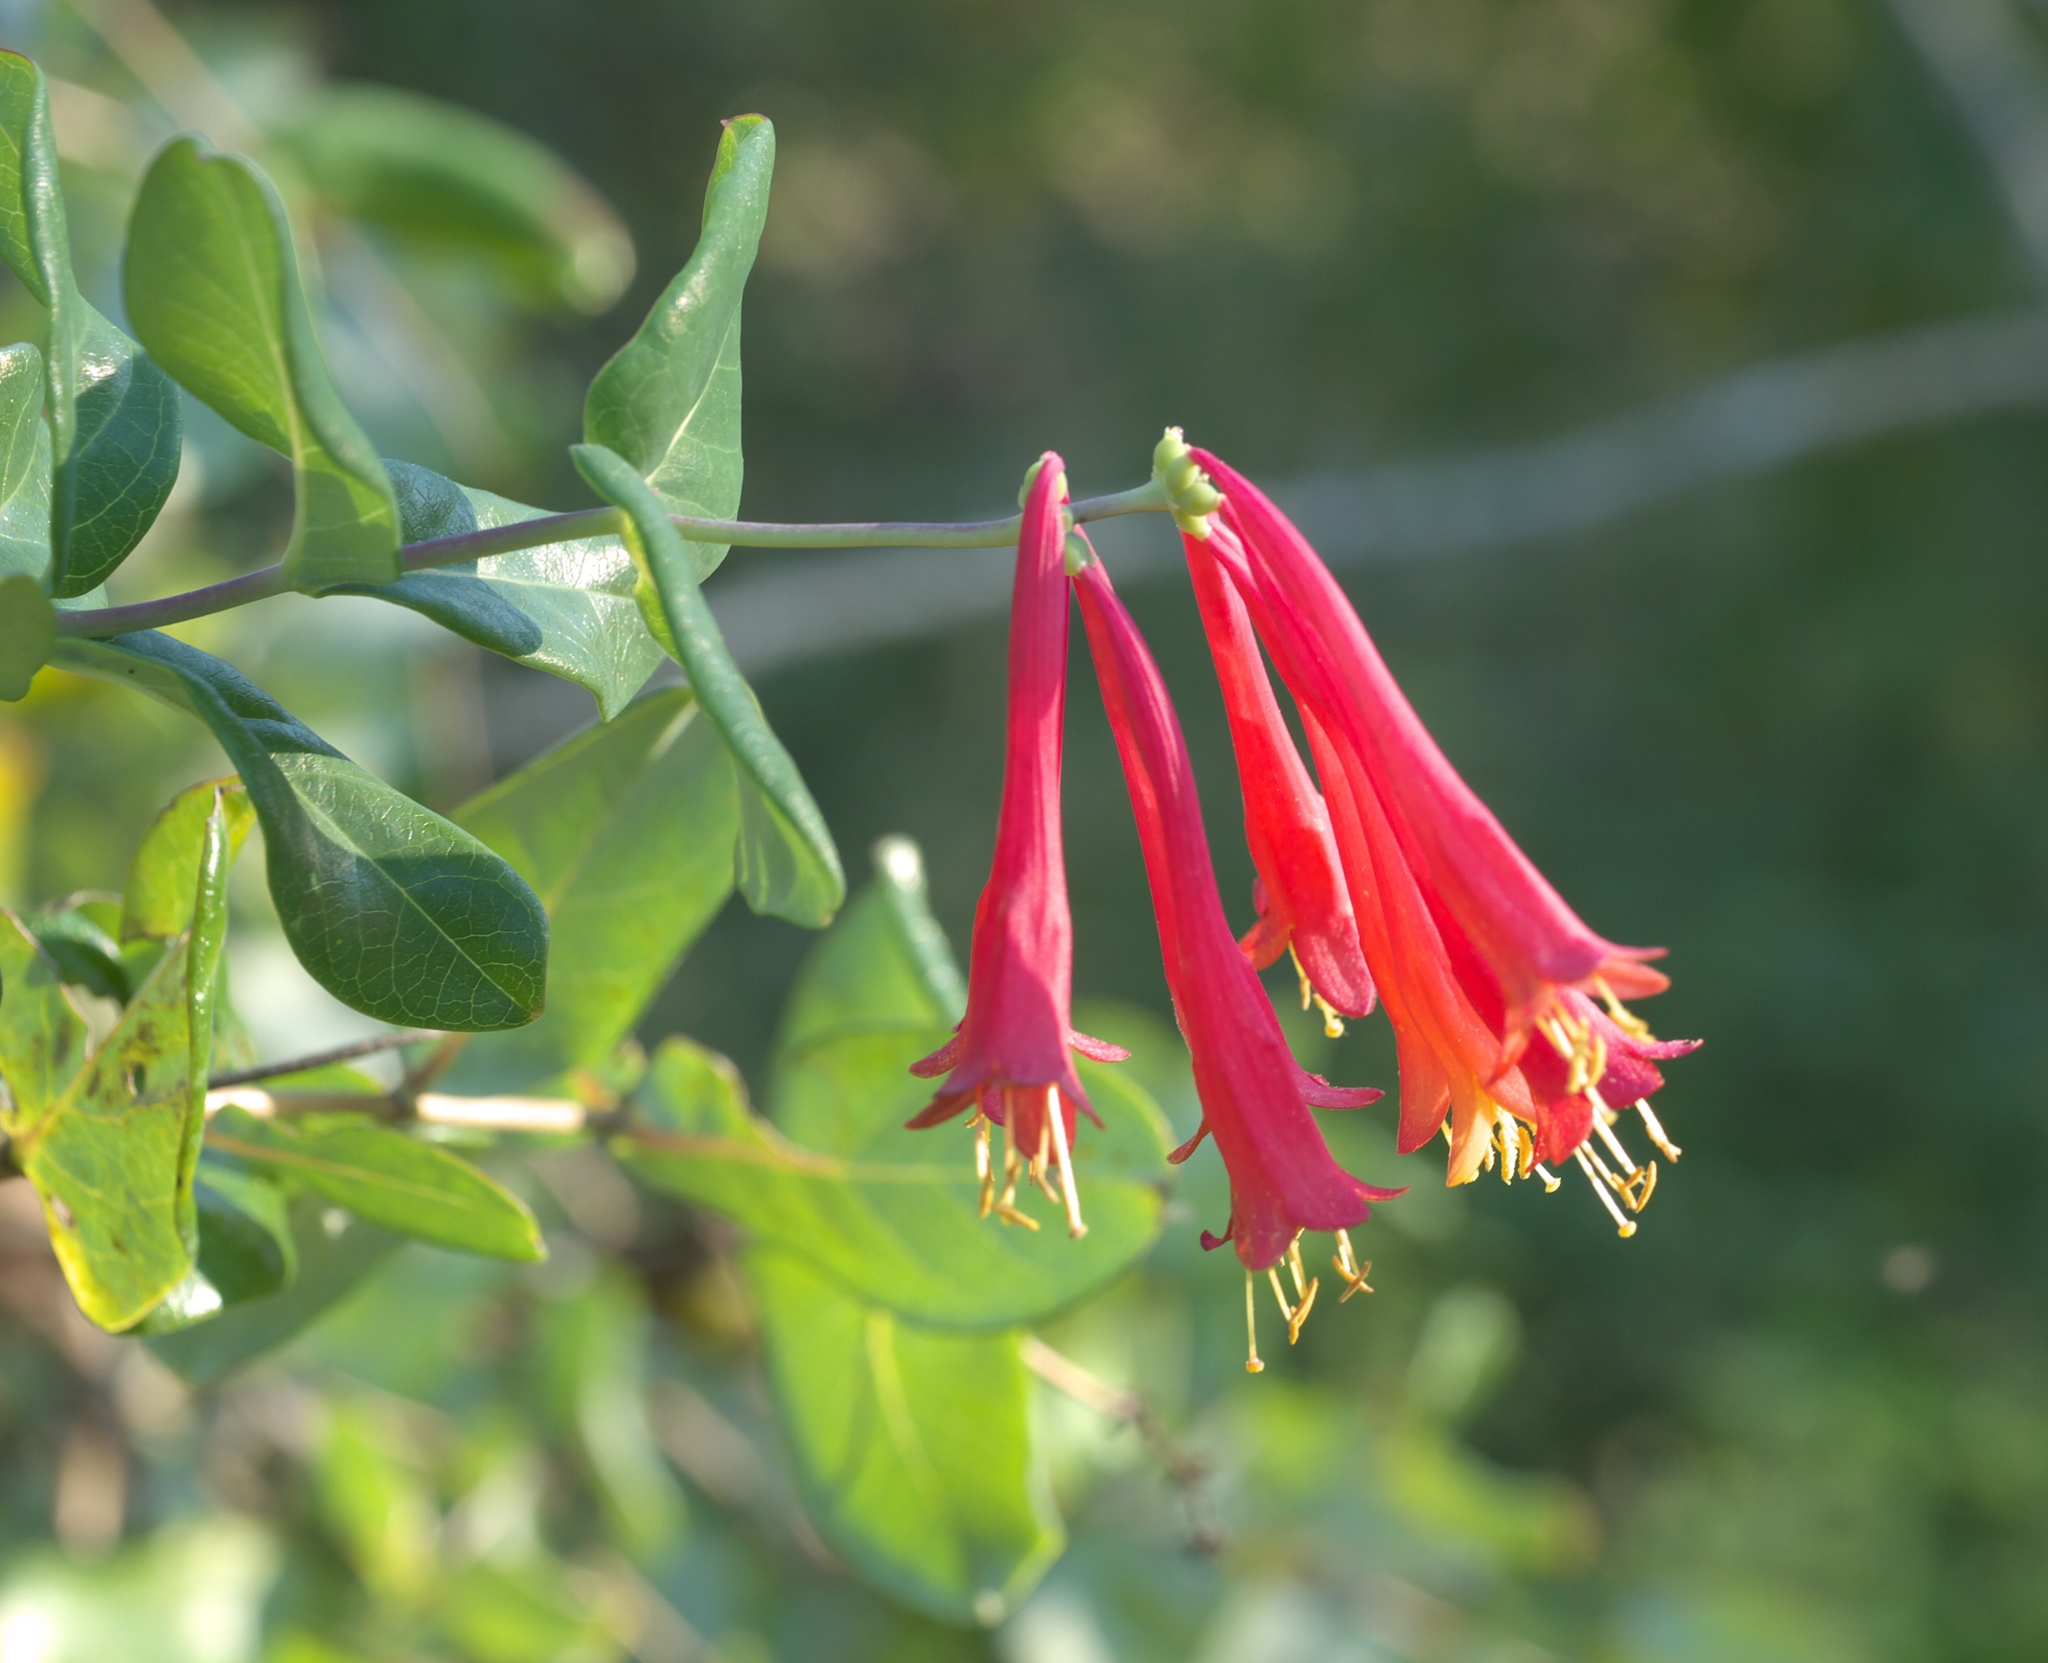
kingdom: Plantae
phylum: Tracheophyta
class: Magnoliopsida
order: Dipsacales
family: Caprifoliaceae
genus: Lonicera
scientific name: Lonicera sempervirens
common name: Coral honeysuckle
